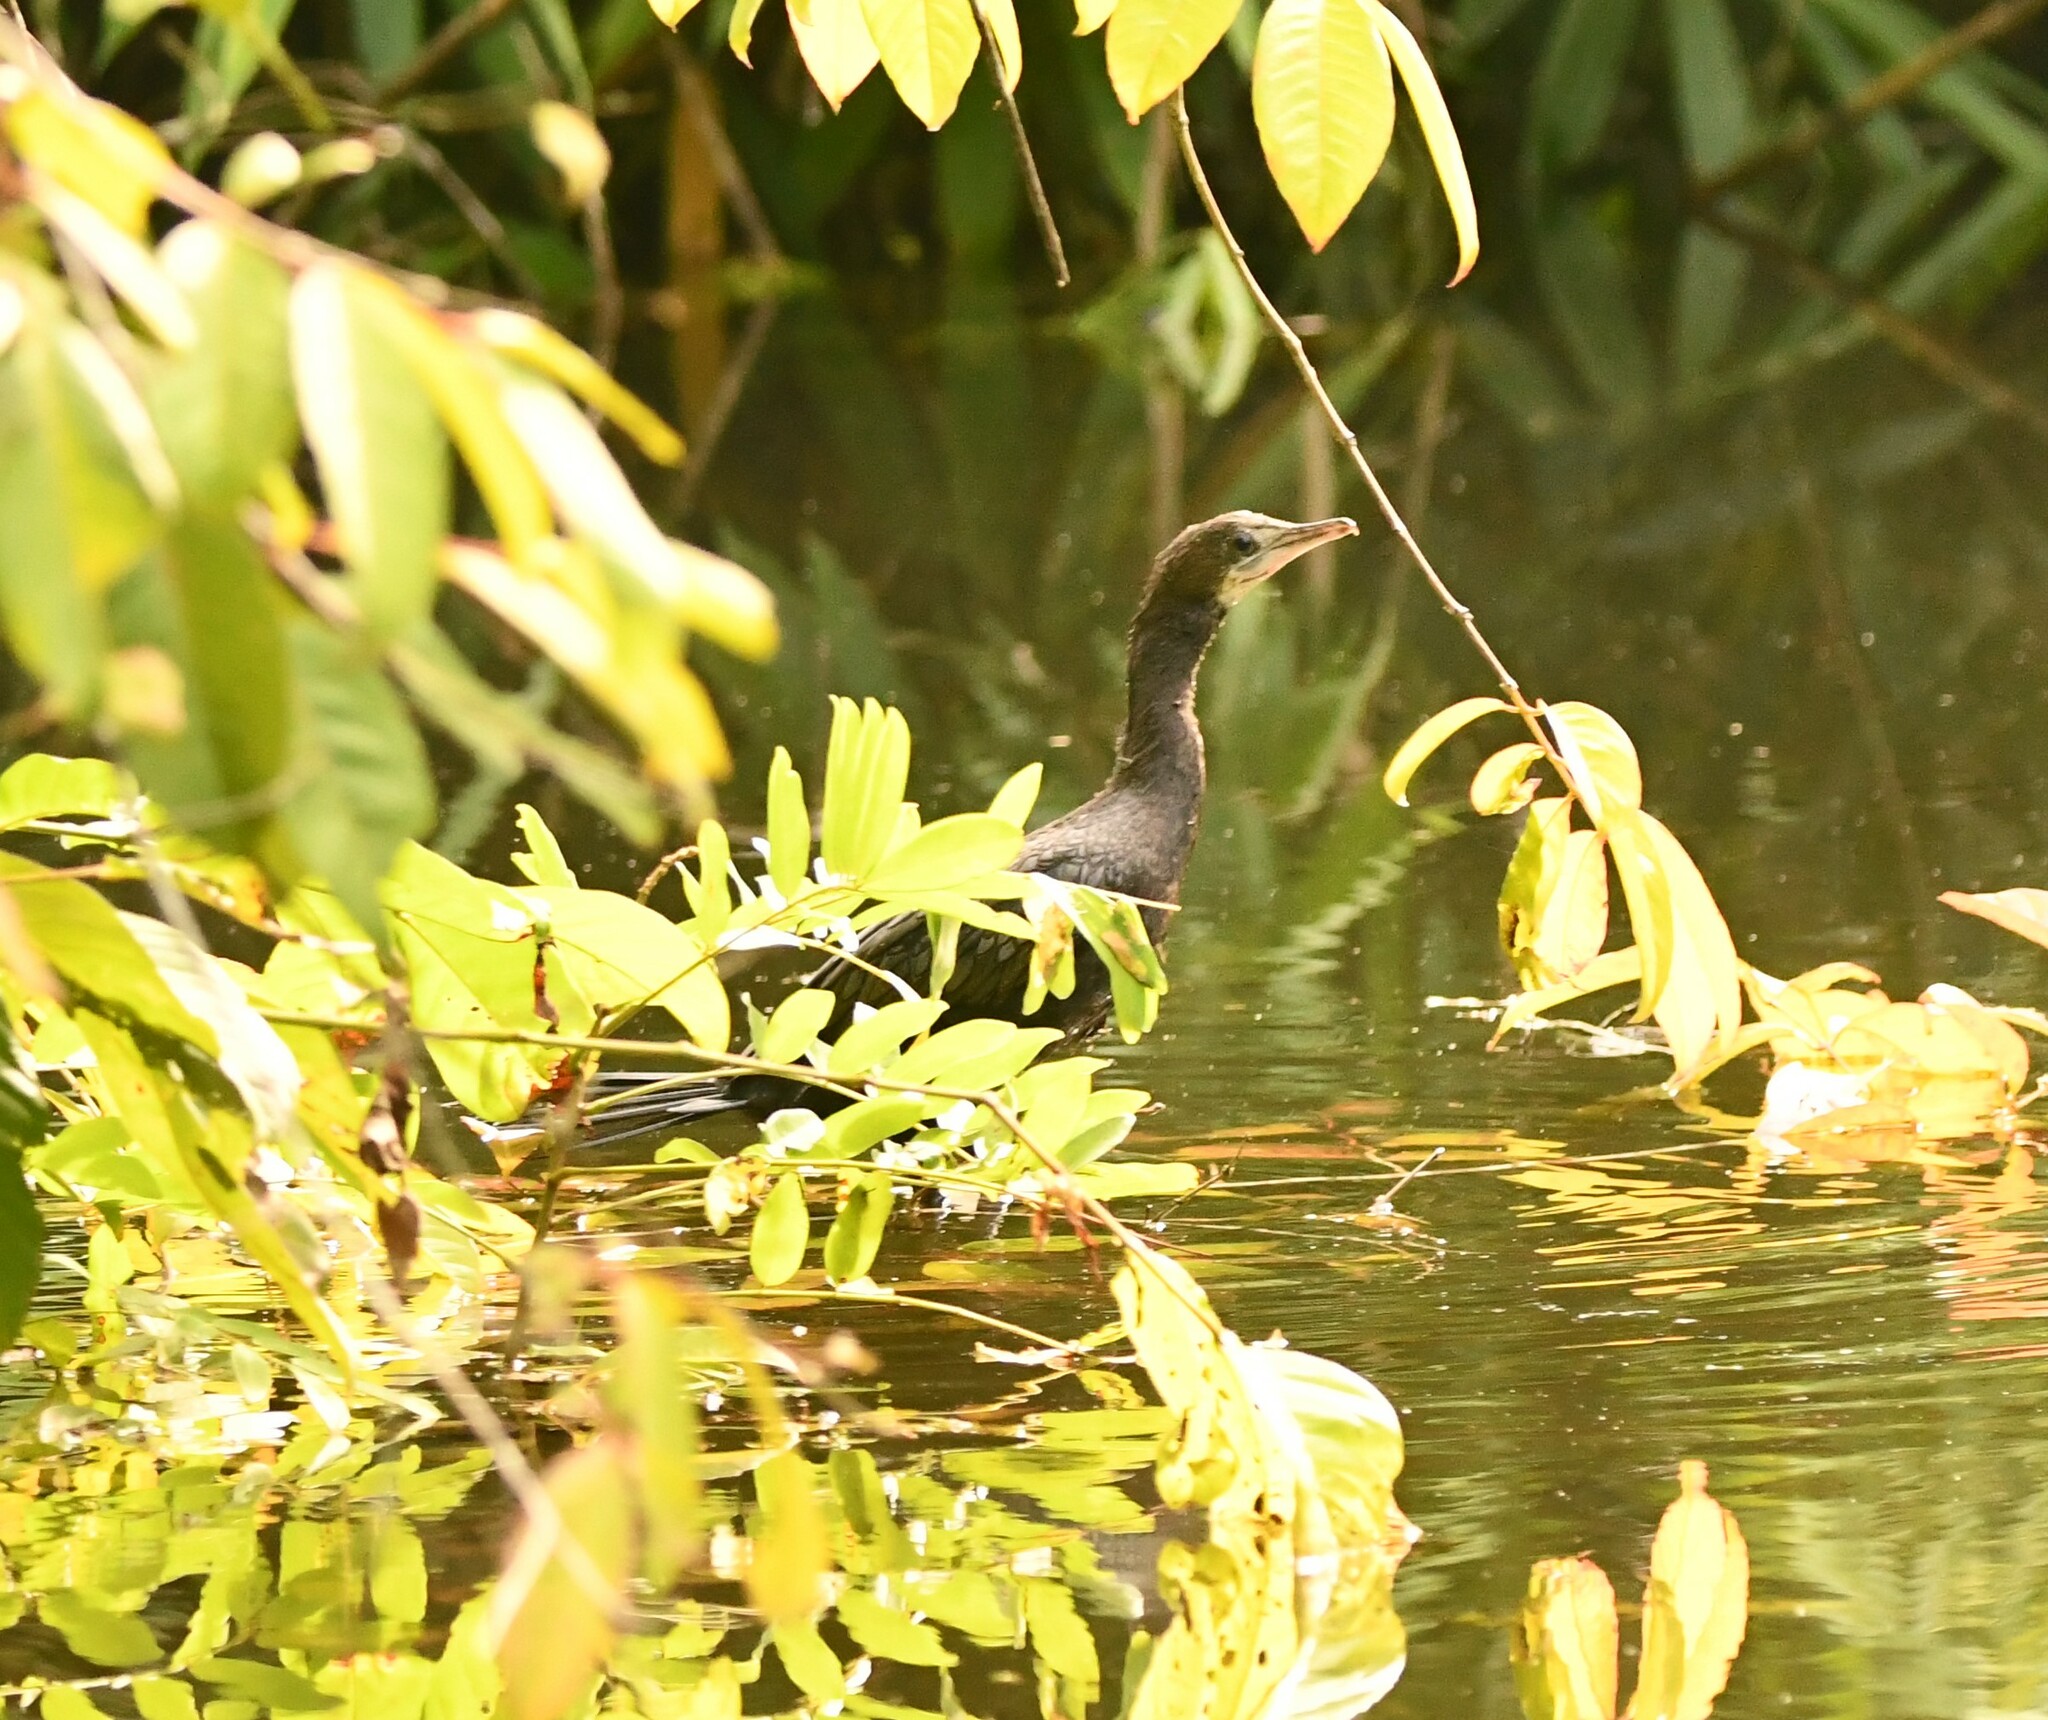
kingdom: Animalia
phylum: Chordata
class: Aves
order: Suliformes
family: Phalacrocoracidae
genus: Microcarbo
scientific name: Microcarbo niger
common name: Little cormorant
